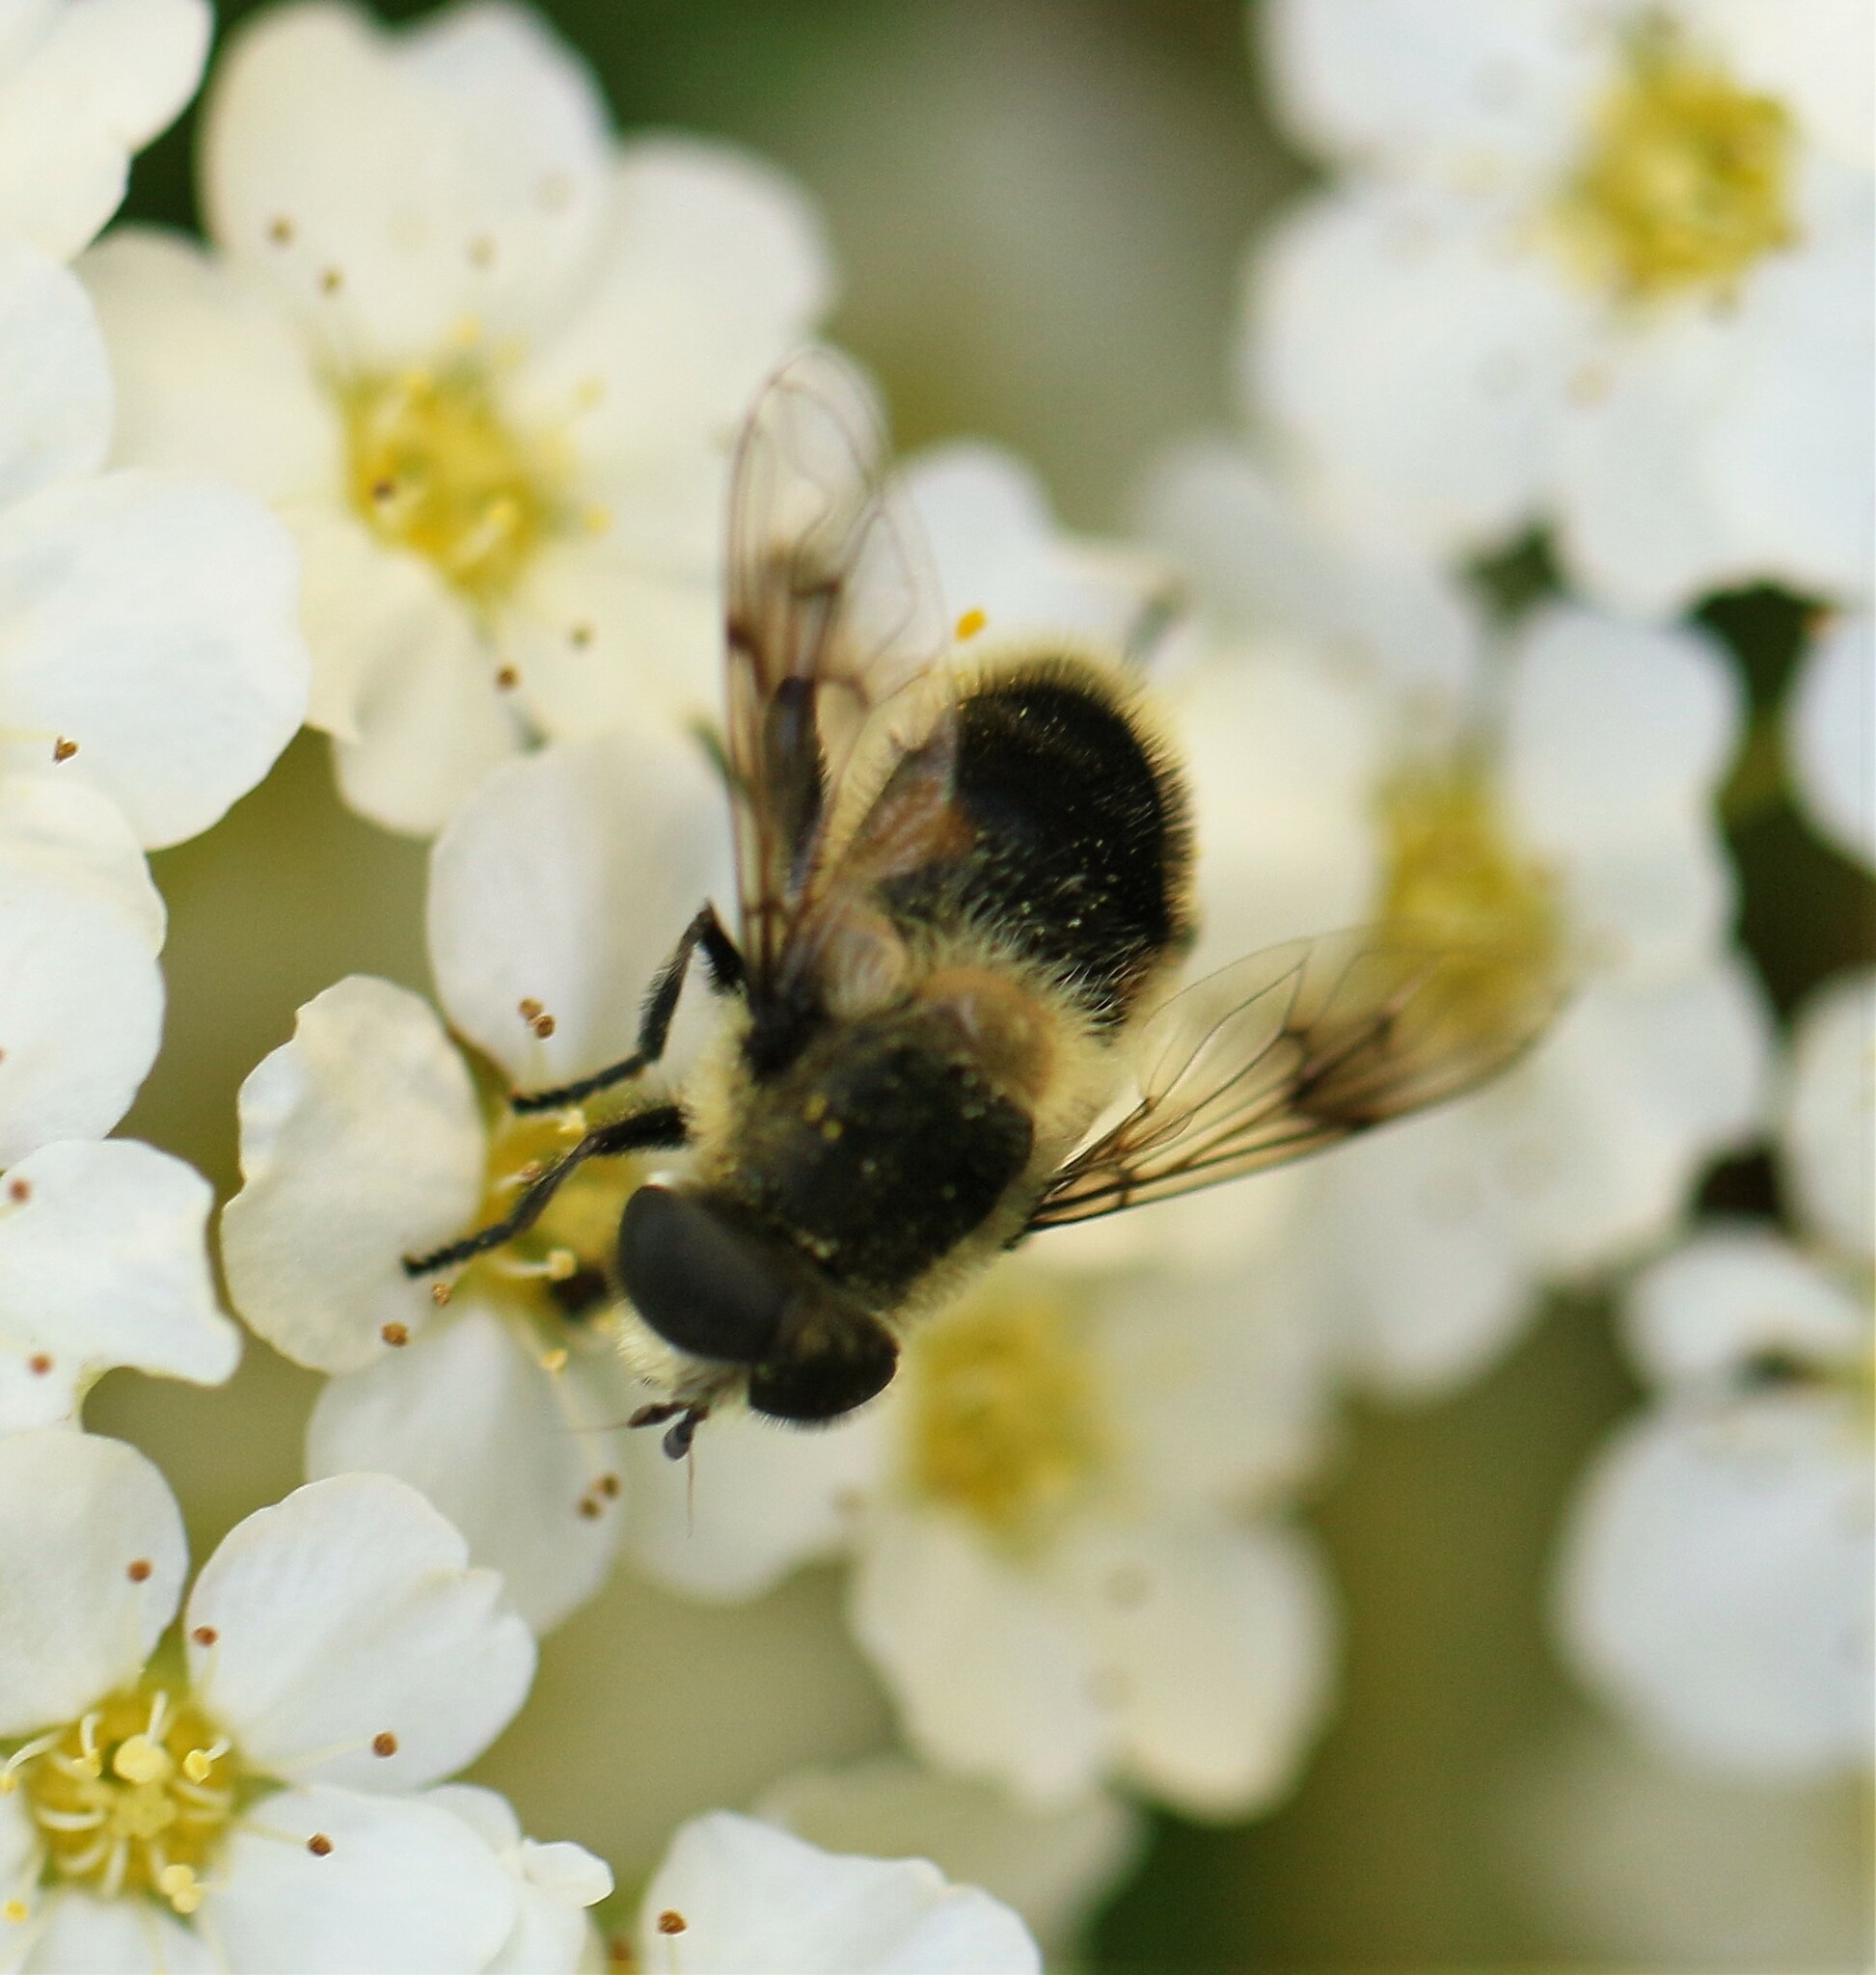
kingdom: Animalia
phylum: Arthropoda
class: Insecta
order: Diptera
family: Syrphidae
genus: Eristalis
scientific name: Eristalis anthophorina
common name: Orange-spotted drone fly
